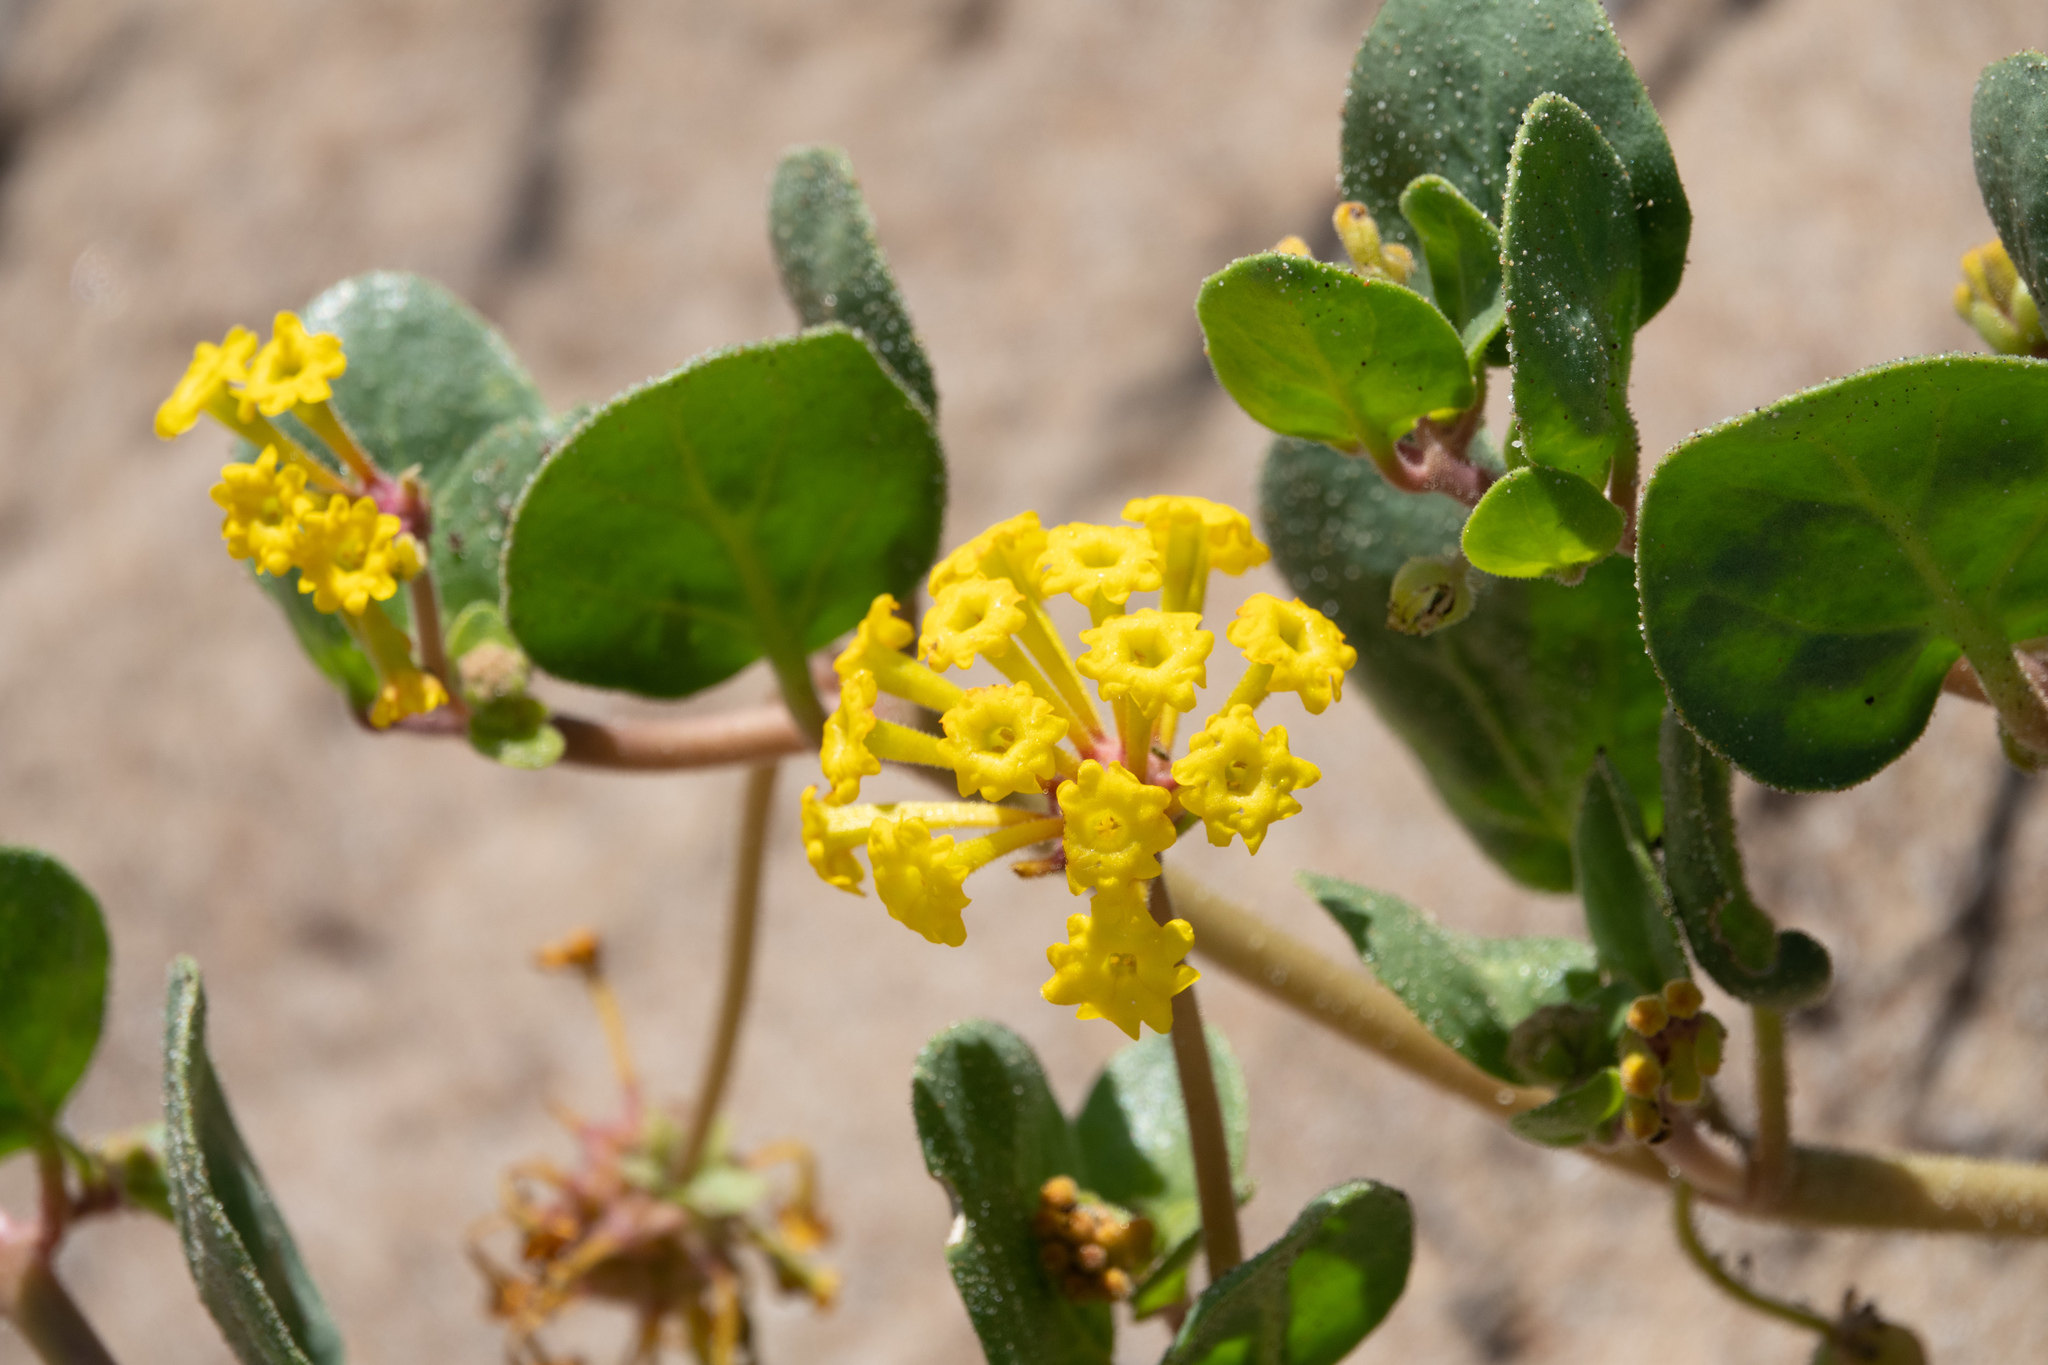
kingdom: Plantae
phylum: Tracheophyta
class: Magnoliopsida
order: Caryophyllales
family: Nyctaginaceae
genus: Abronia
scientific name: Abronia latifolia
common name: Yellow sand-verbena
